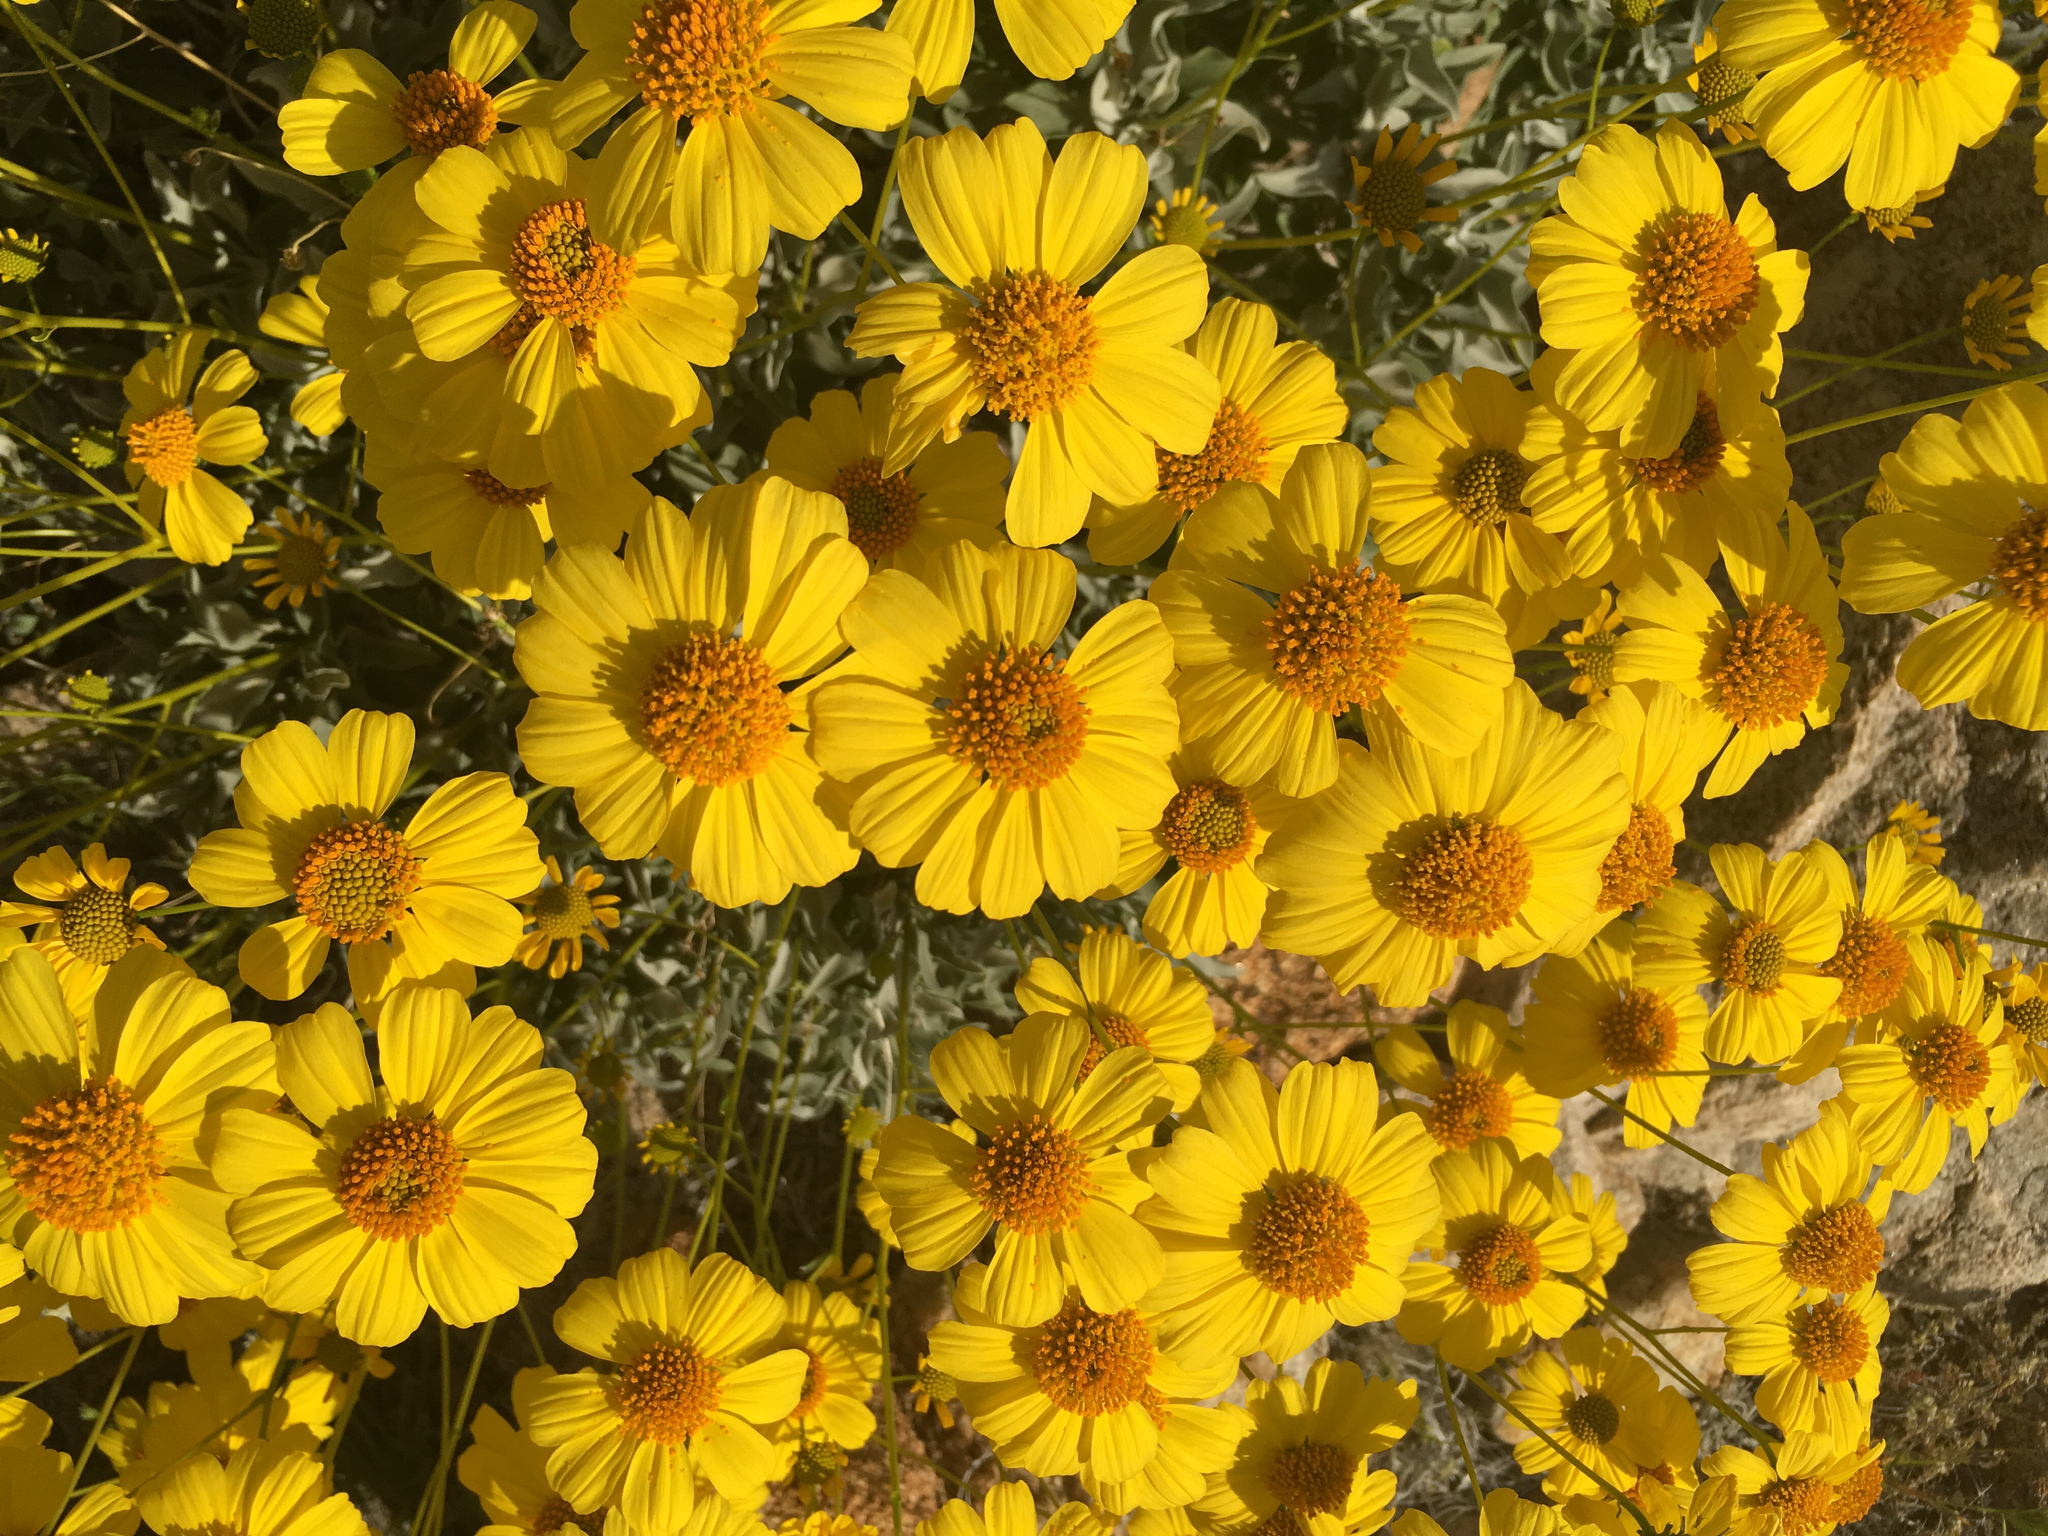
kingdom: Plantae
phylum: Tracheophyta
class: Magnoliopsida
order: Asterales
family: Asteraceae
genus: Encelia
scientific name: Encelia farinosa
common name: Brittlebush
